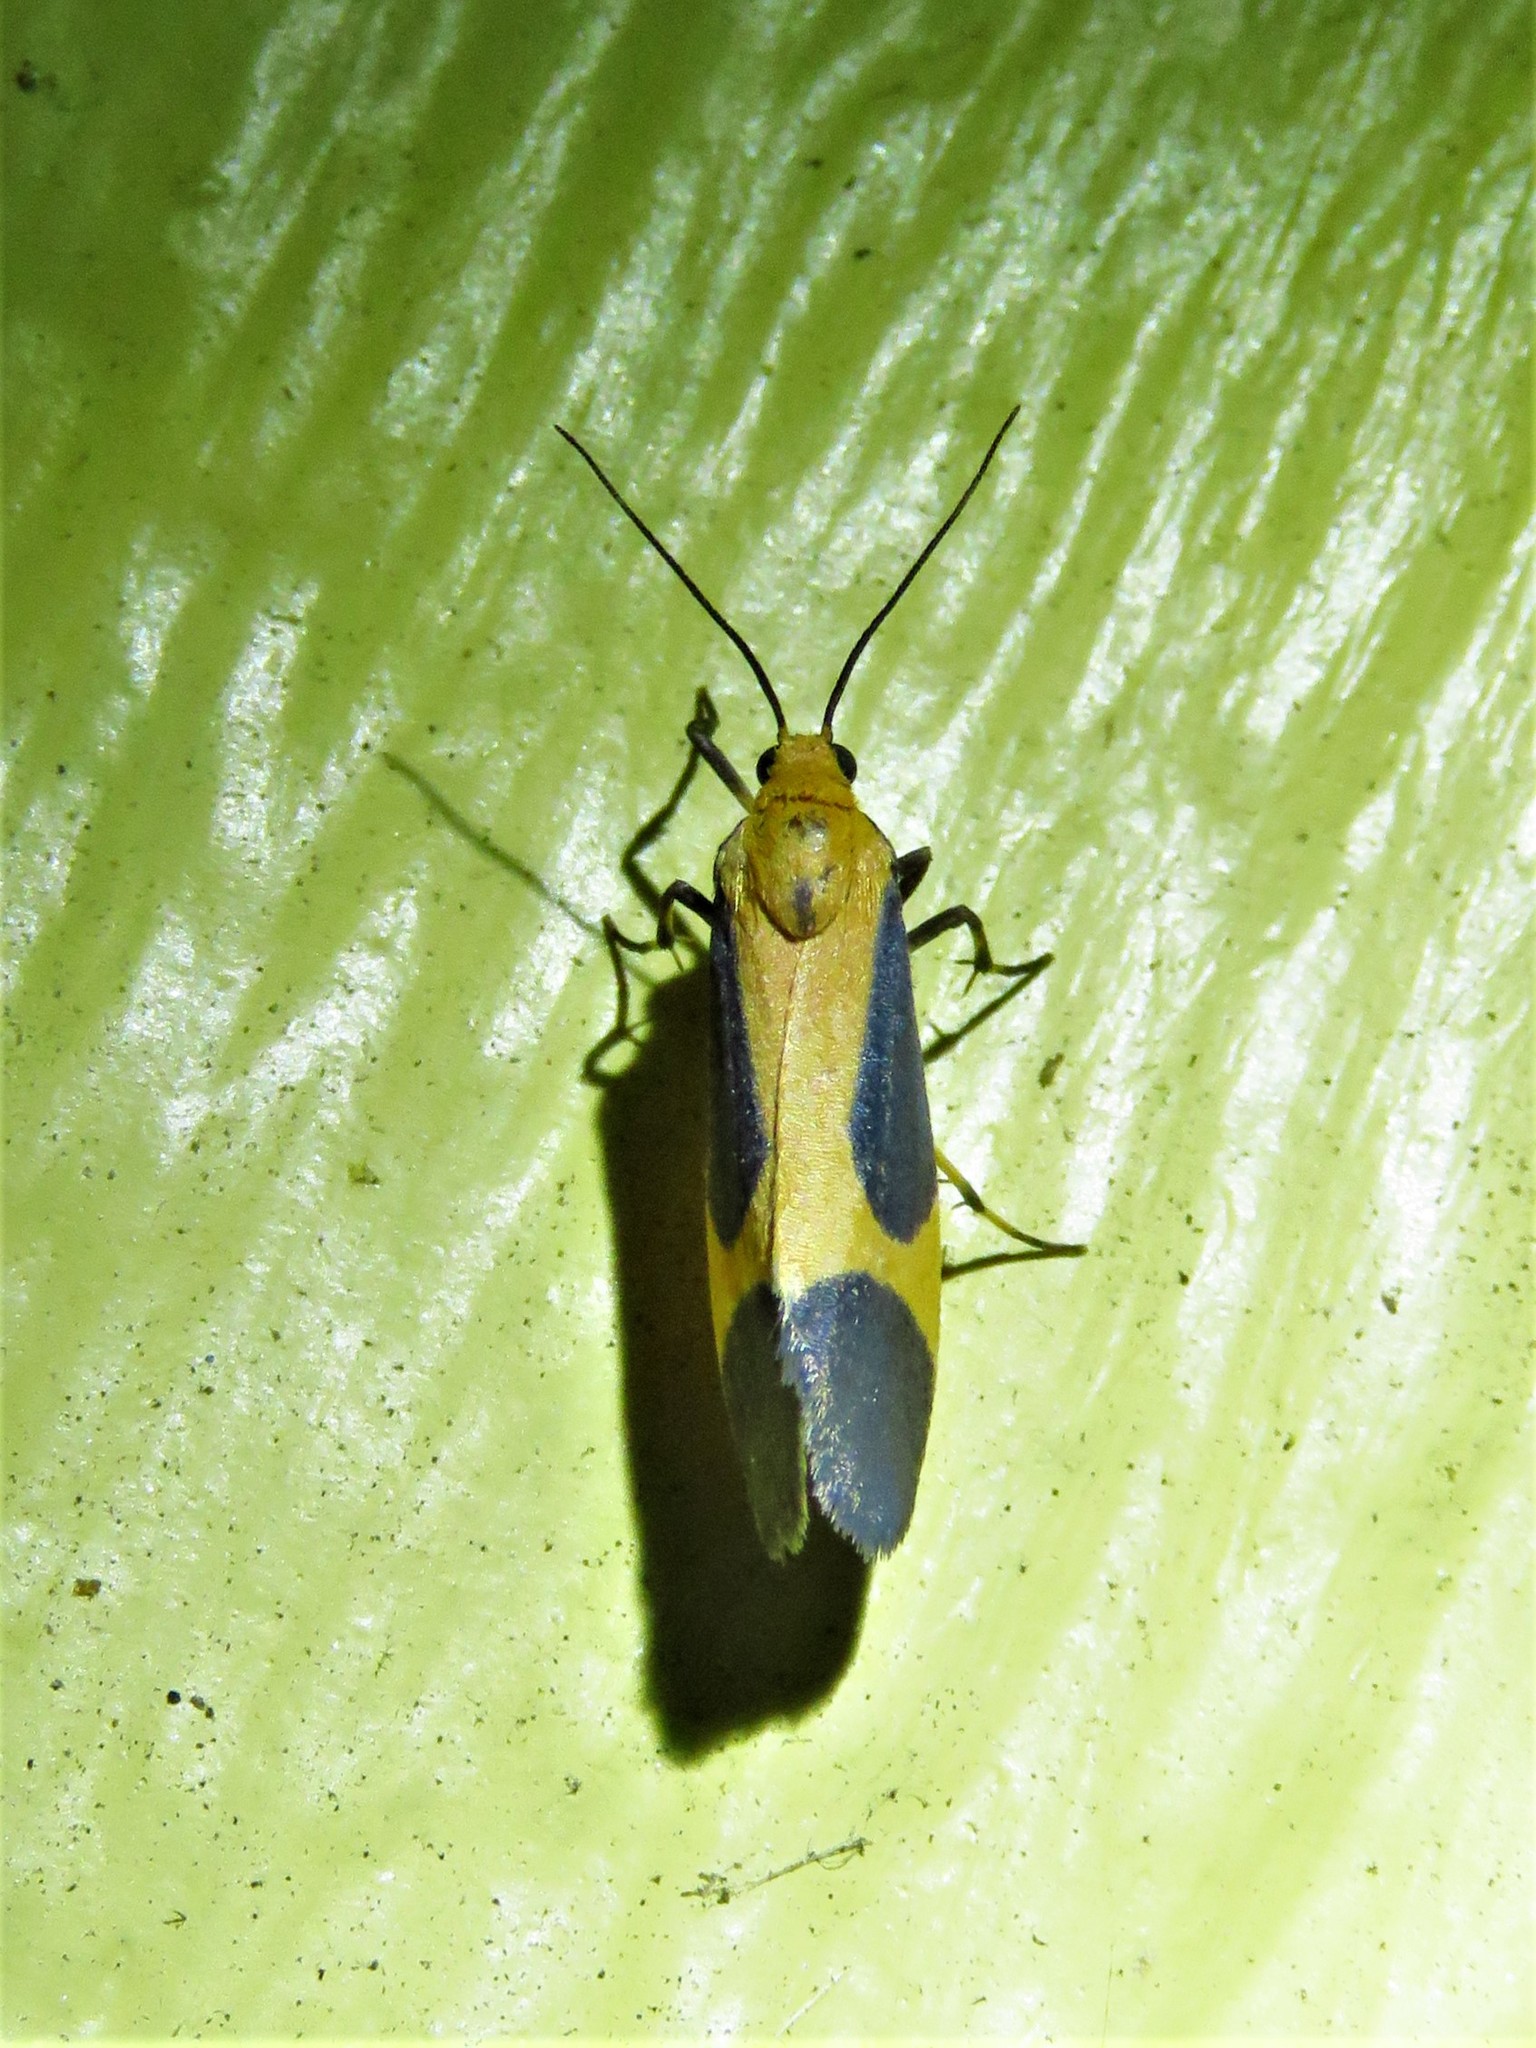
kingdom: Animalia
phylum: Arthropoda
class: Insecta
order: Lepidoptera
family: Erebidae
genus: Cisthene
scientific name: Cisthene picta
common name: Pictured lichen moth
